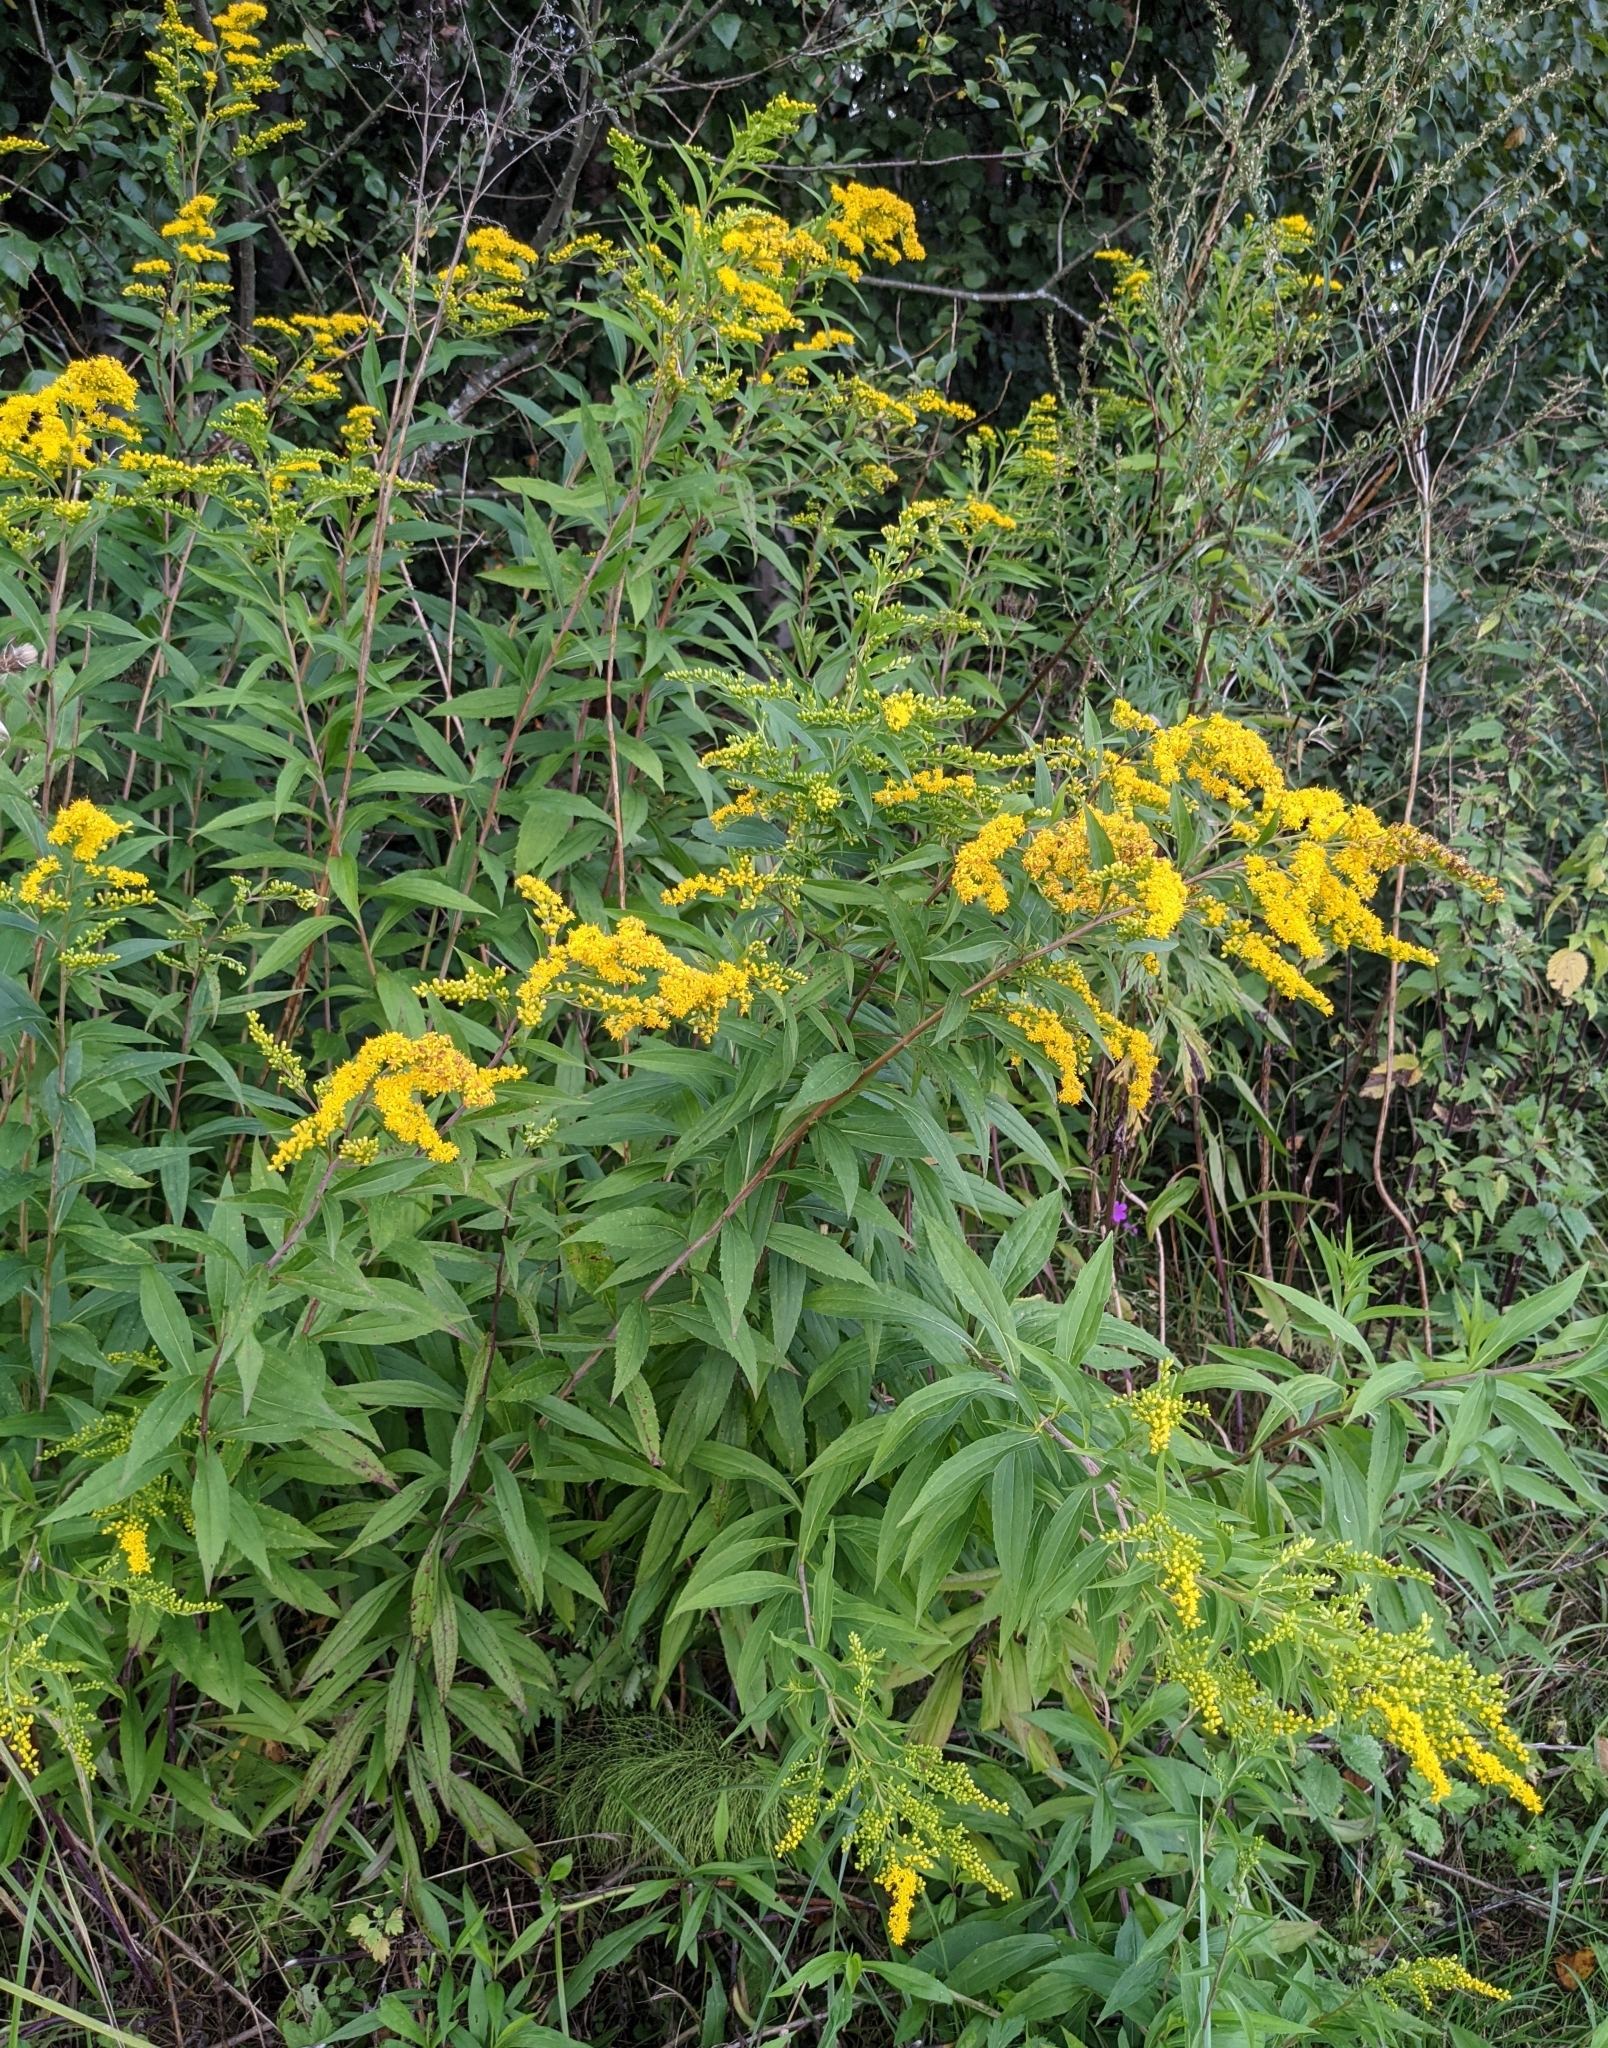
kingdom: Plantae
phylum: Tracheophyta
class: Magnoliopsida
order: Asterales
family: Asteraceae
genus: Solidago
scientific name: Solidago gigantea
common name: Giant goldenrod
